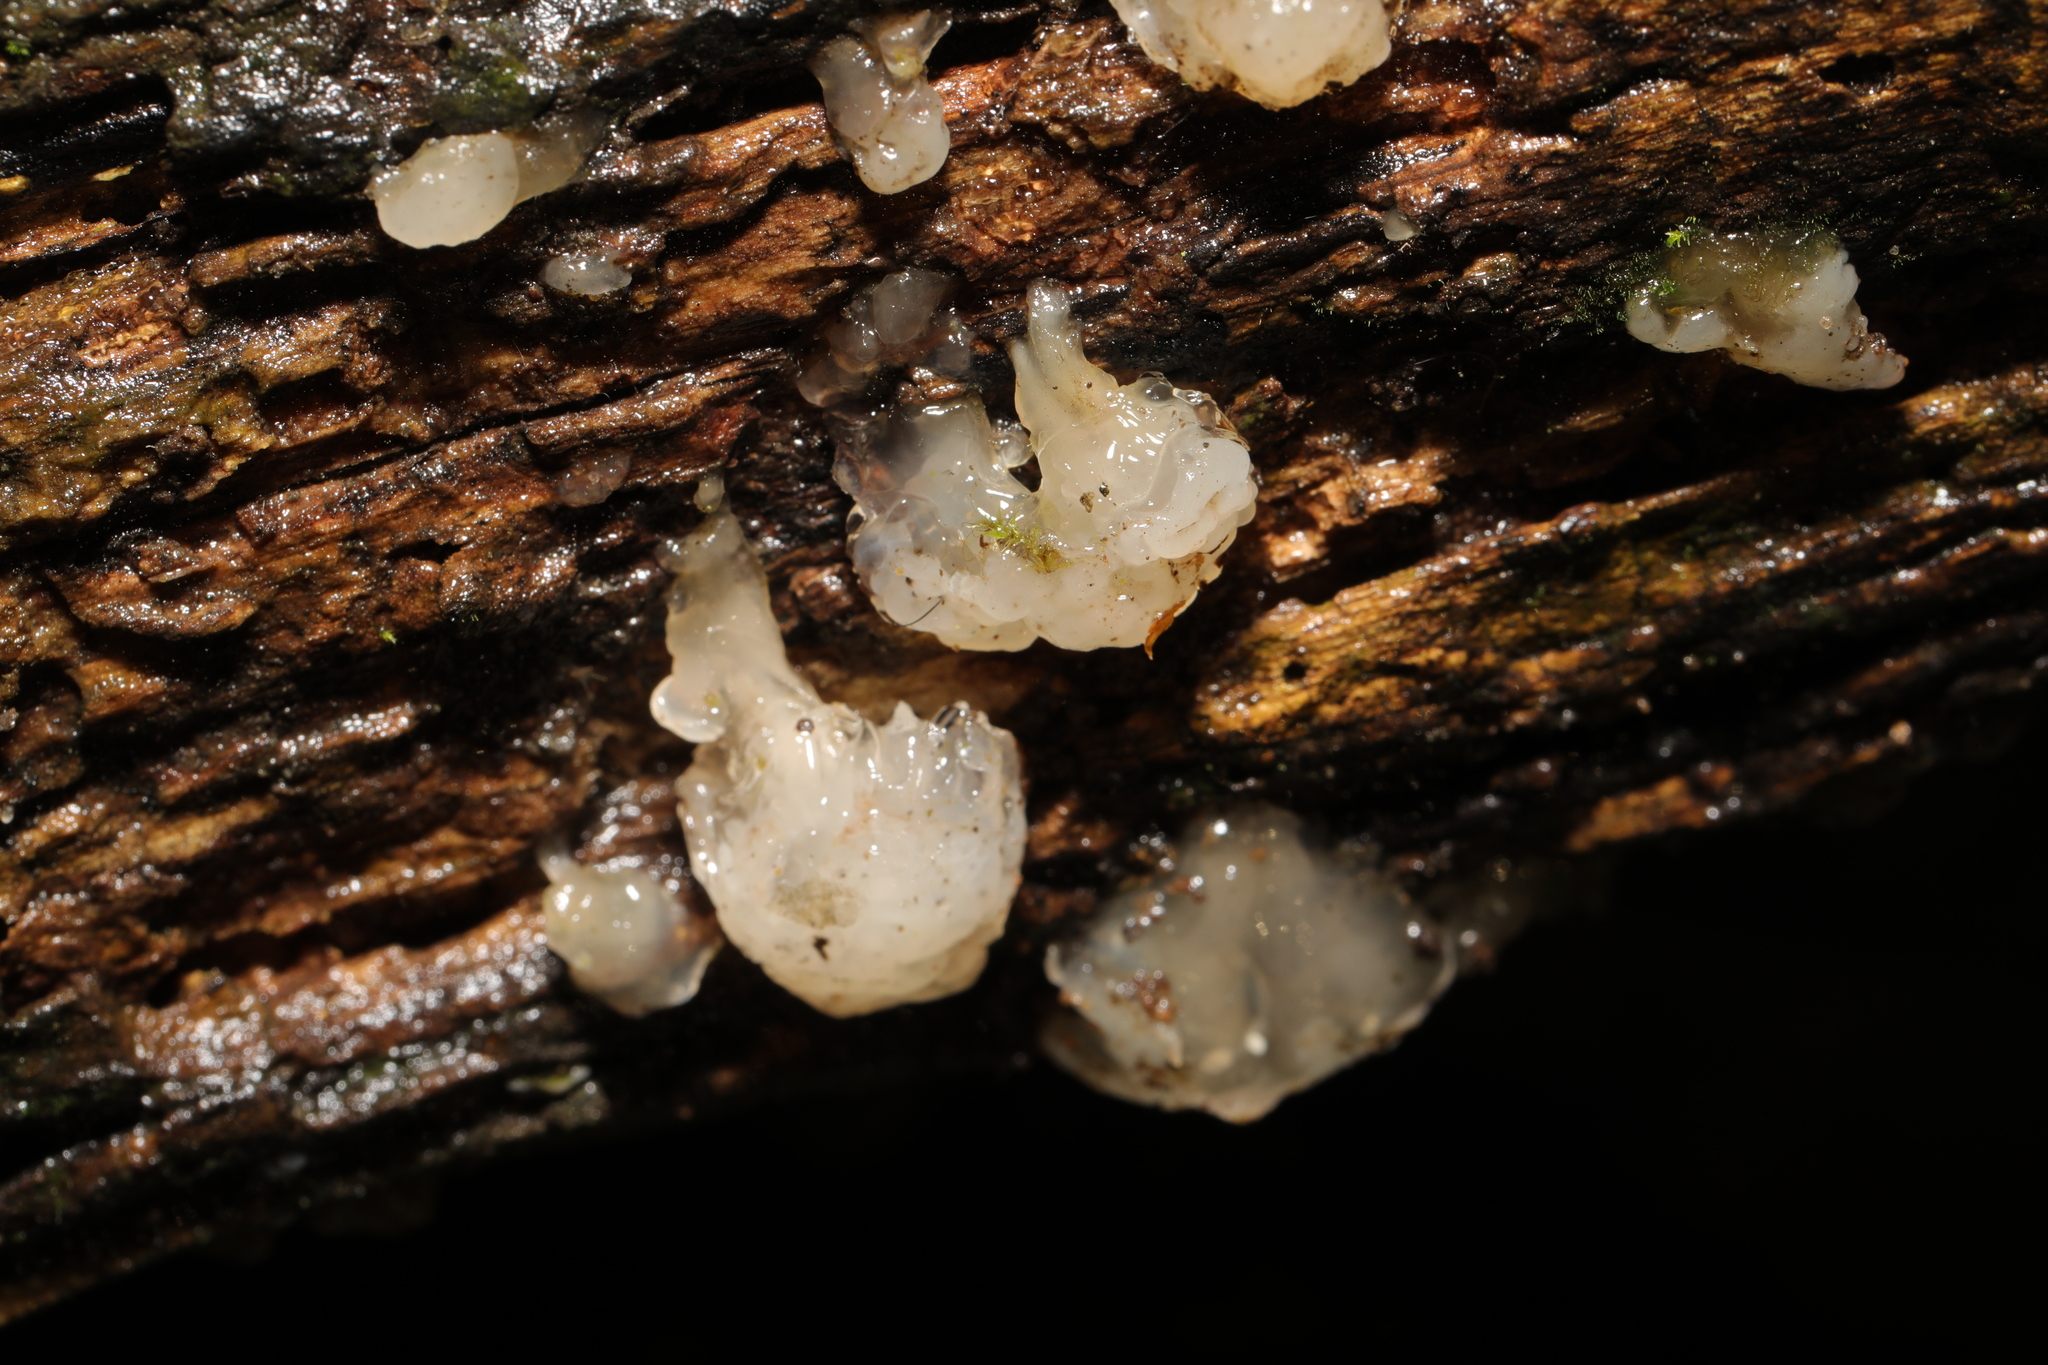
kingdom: Fungi
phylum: Basidiomycota
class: Agaricomycetes
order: Auriculariales
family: Hyaloriaceae
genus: Myxarium
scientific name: Myxarium nucleatum
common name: Crystal brain fungus
